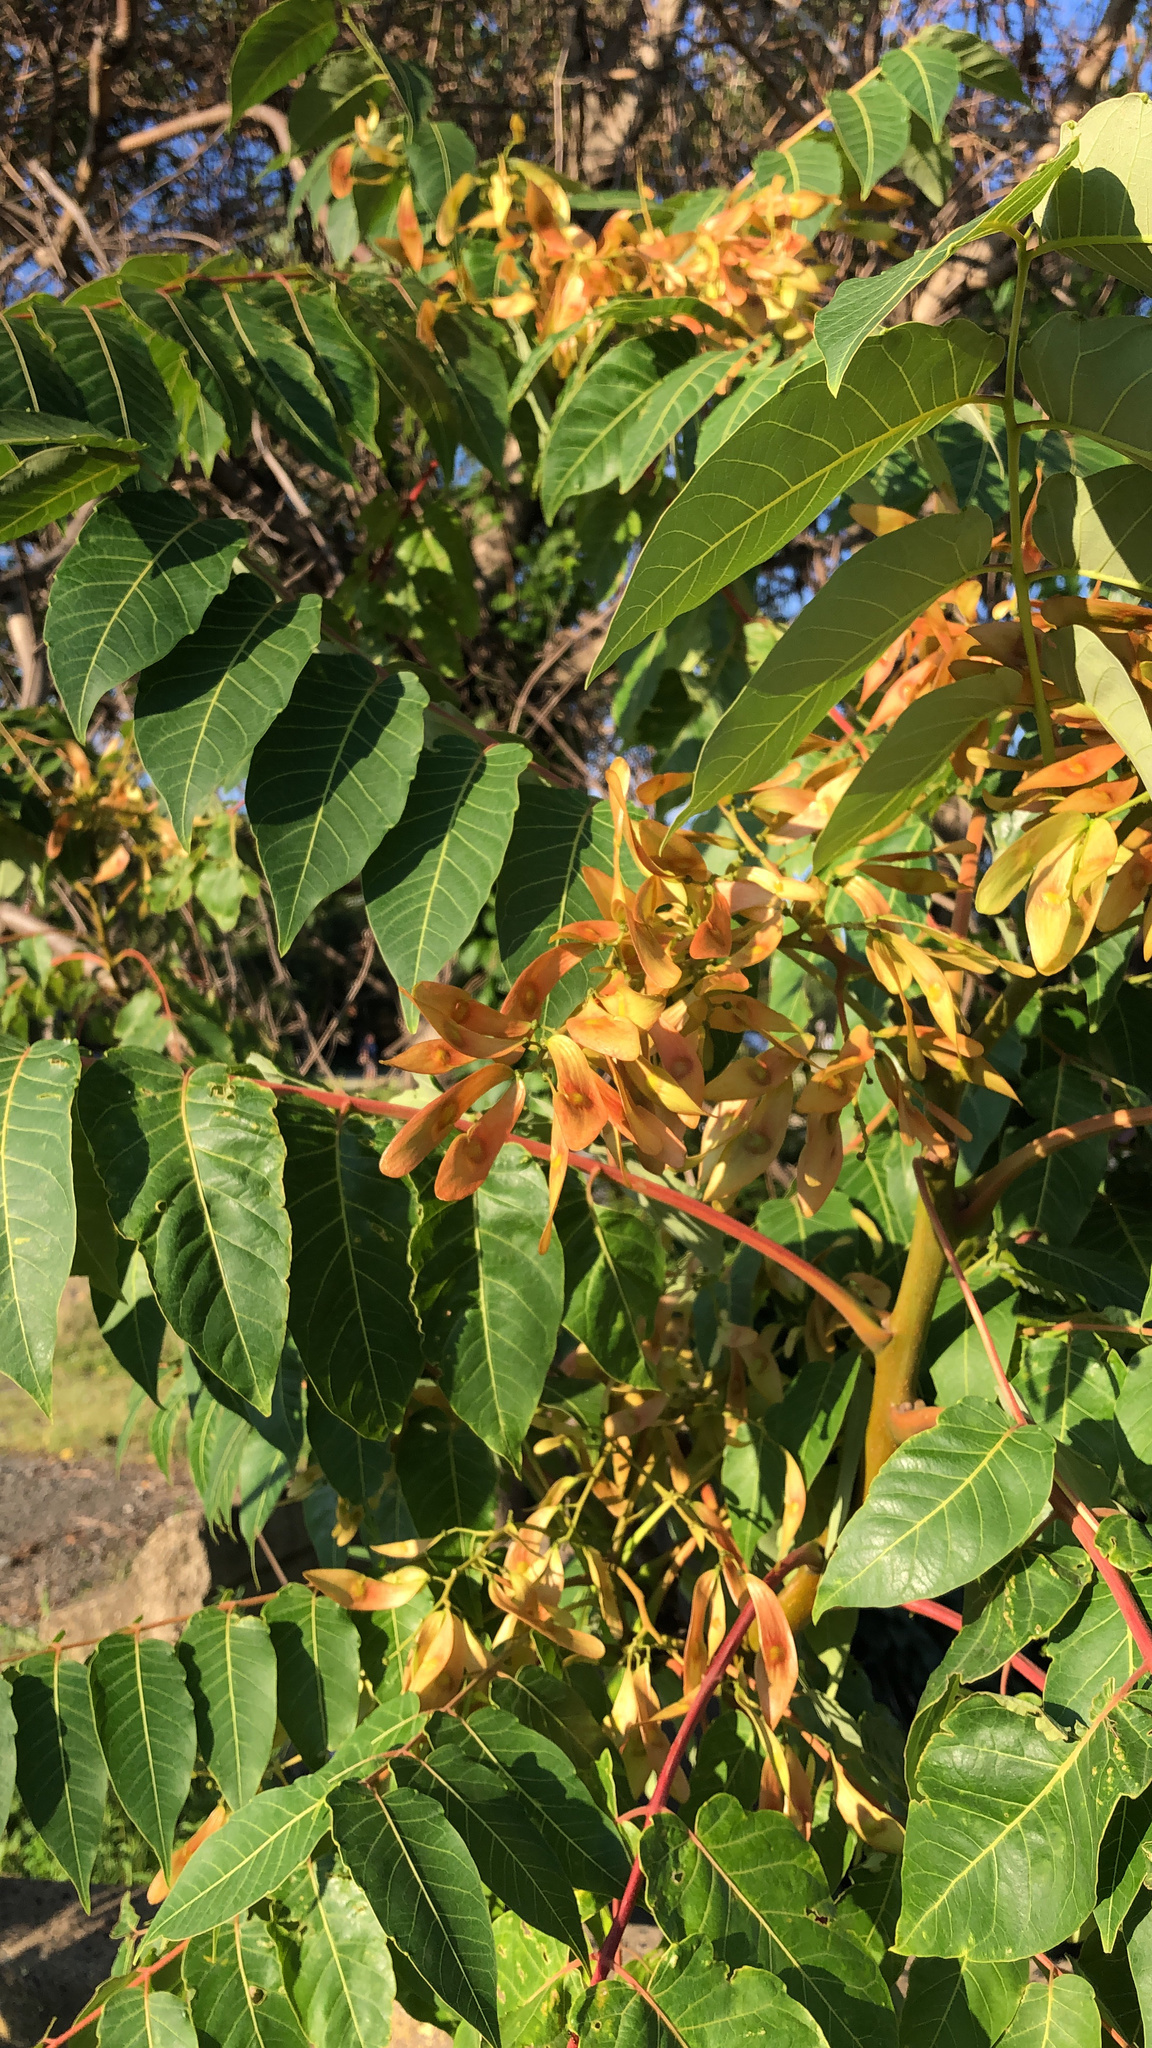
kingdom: Plantae
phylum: Tracheophyta
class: Magnoliopsida
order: Sapindales
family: Simaroubaceae
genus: Ailanthus
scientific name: Ailanthus altissima
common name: Tree-of-heaven
